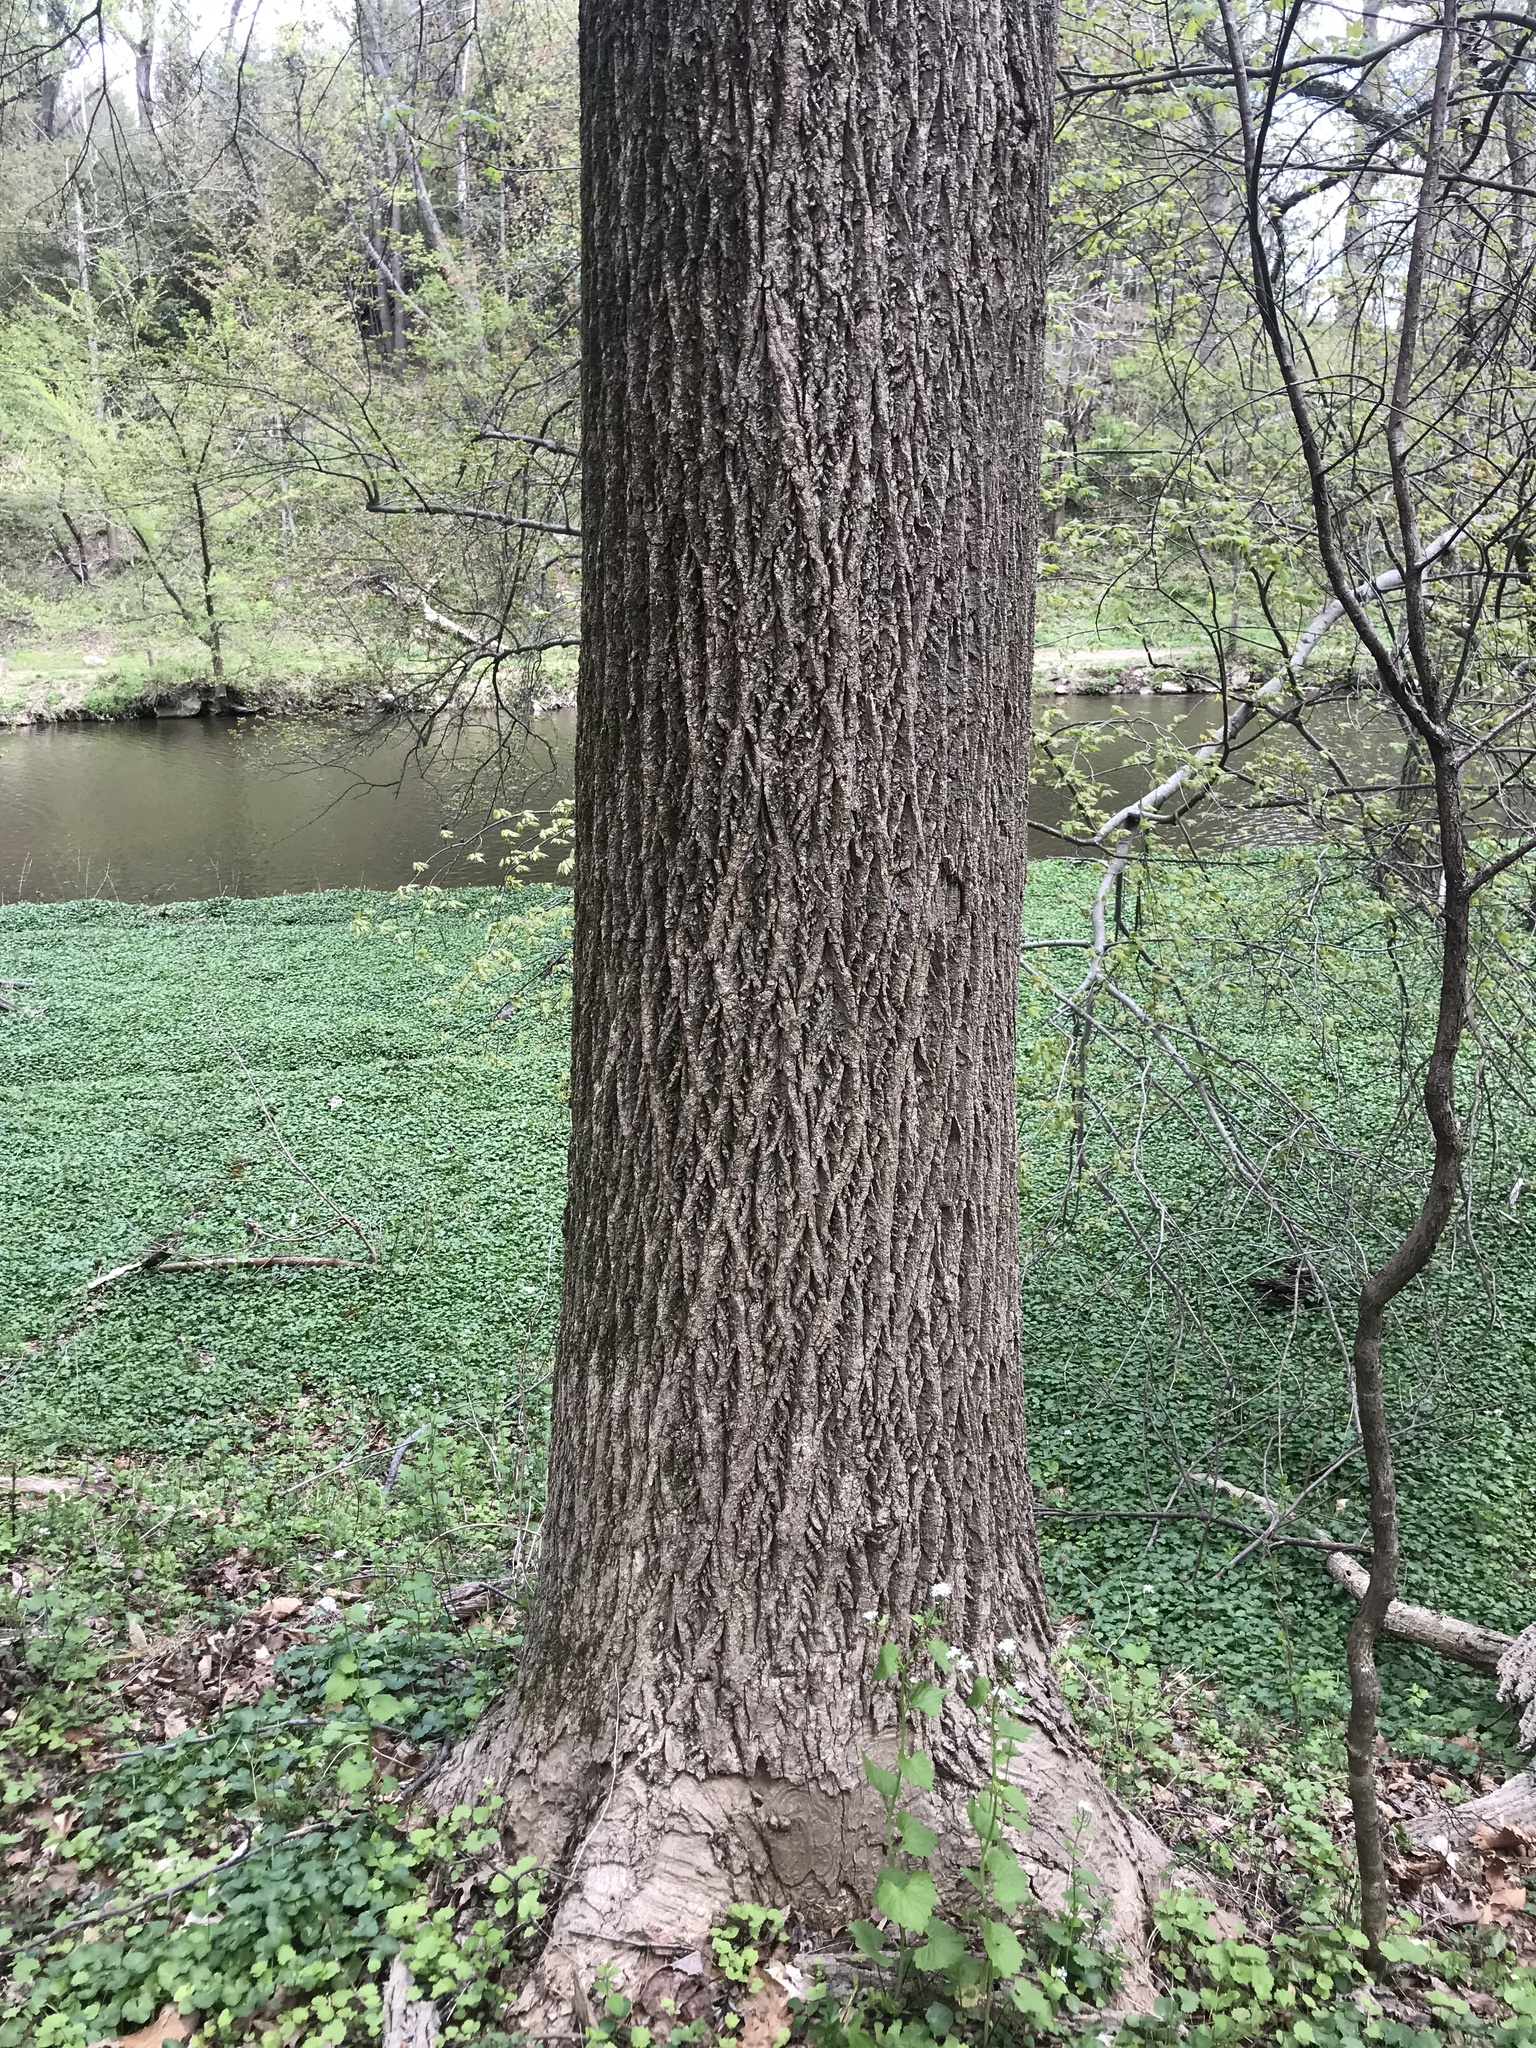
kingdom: Plantae
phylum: Tracheophyta
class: Magnoliopsida
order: Magnoliales
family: Magnoliaceae
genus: Liriodendron
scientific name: Liriodendron tulipifera
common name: Tulip tree
